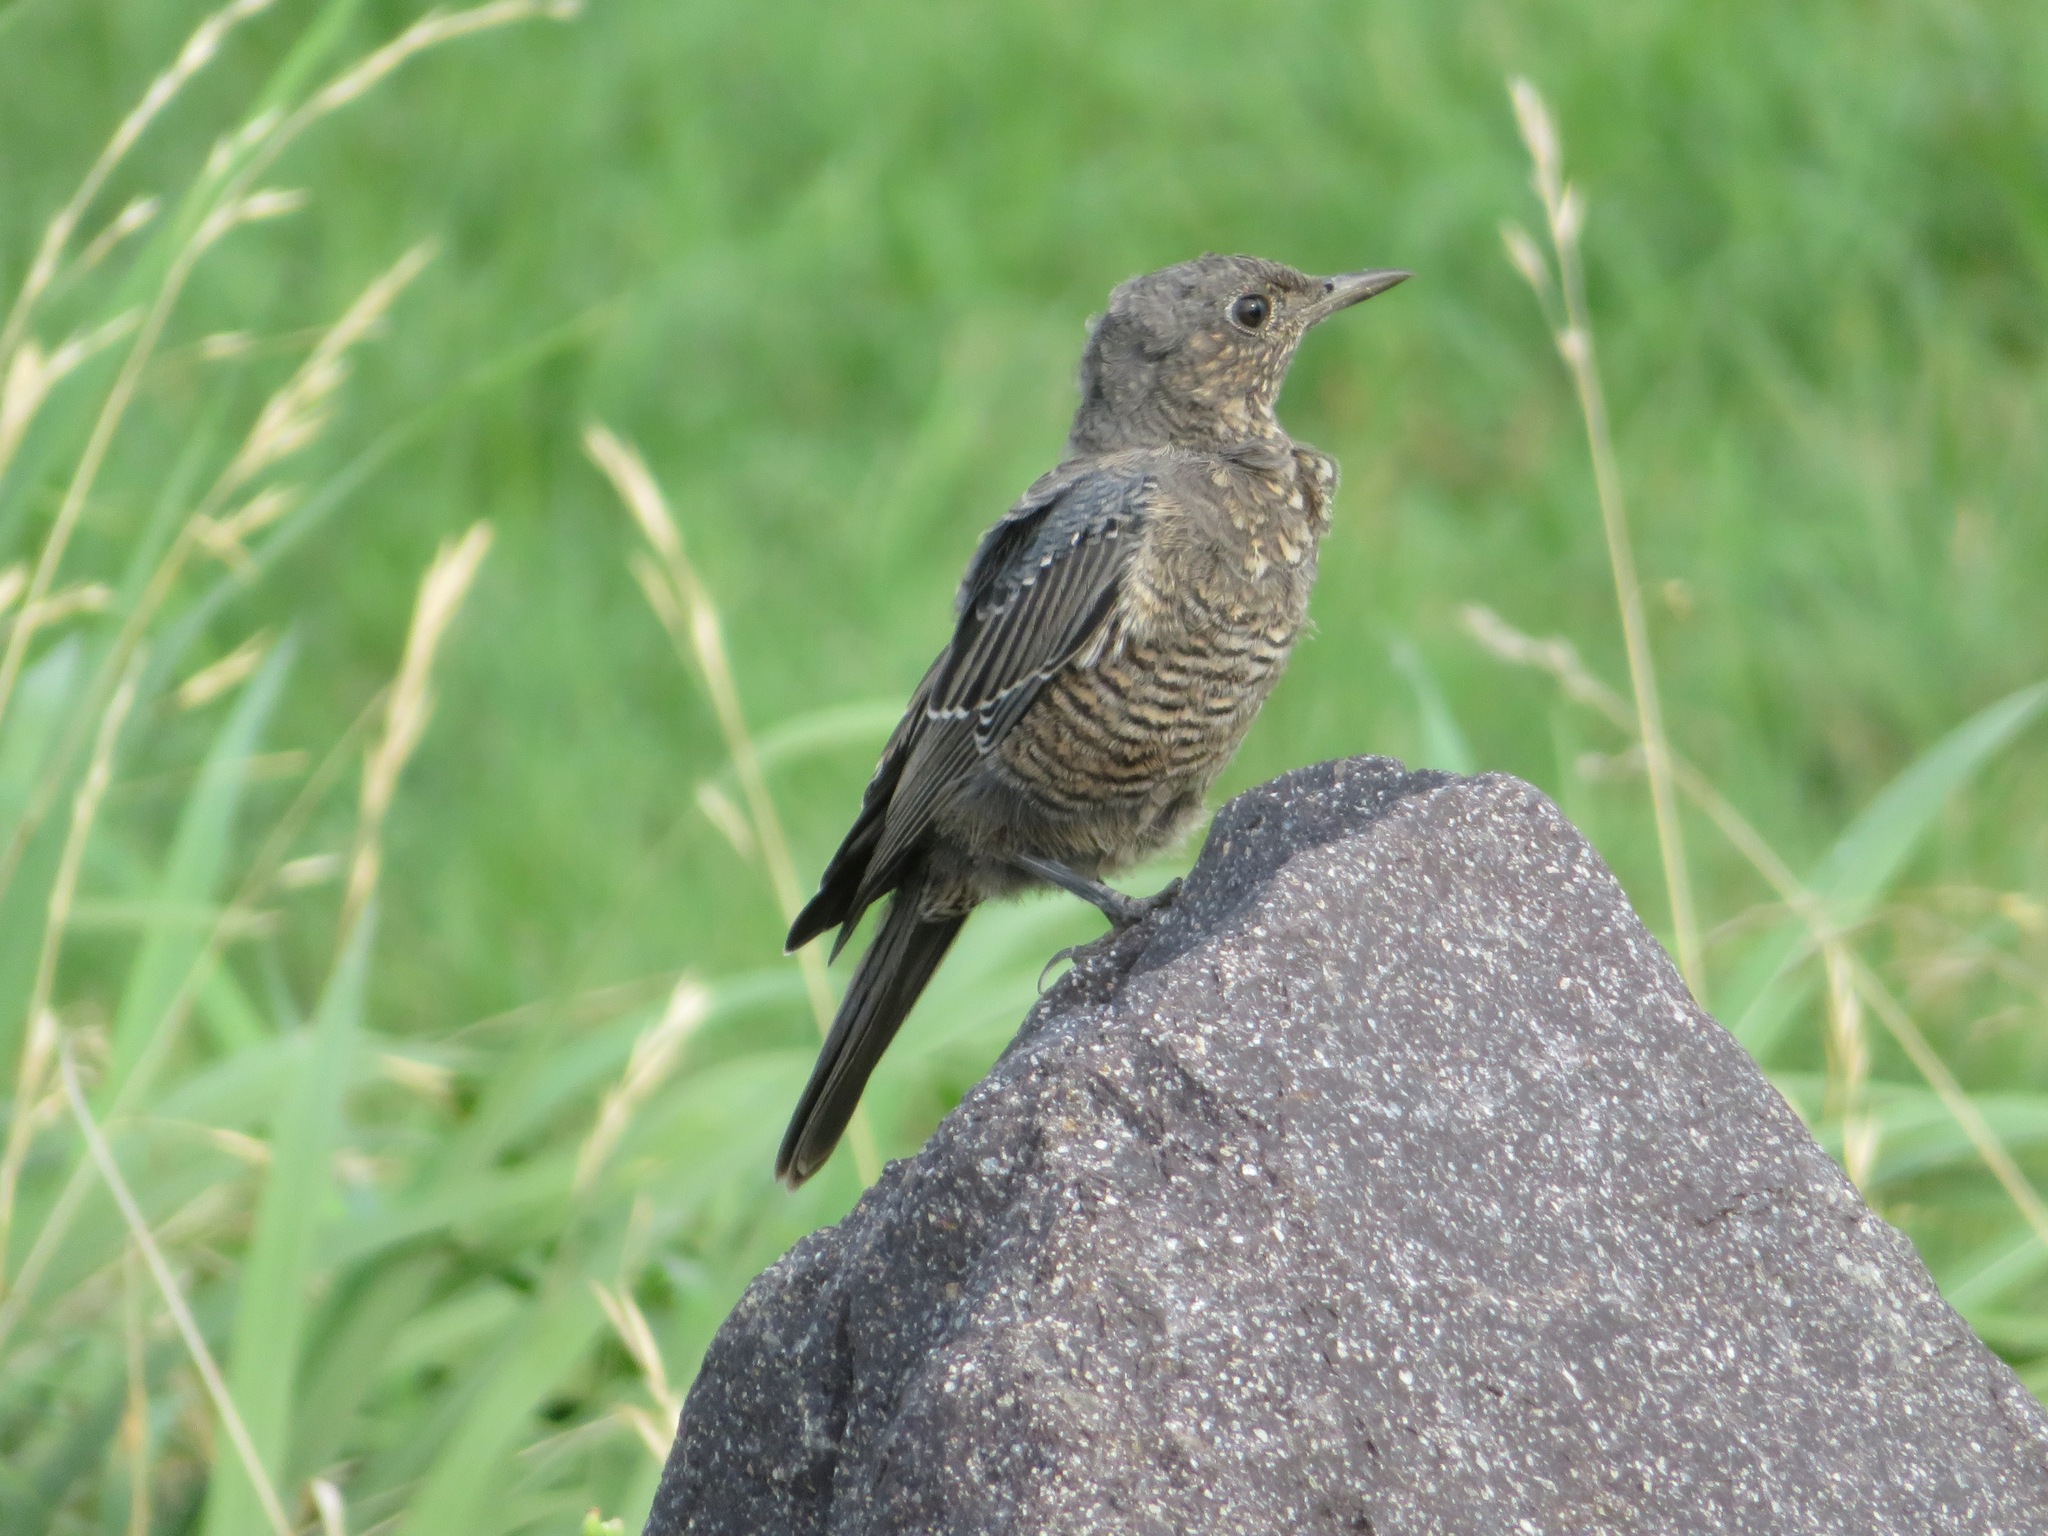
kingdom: Animalia
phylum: Chordata
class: Aves
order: Passeriformes
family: Muscicapidae
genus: Monticola
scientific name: Monticola solitarius
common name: Blue rock thrush
